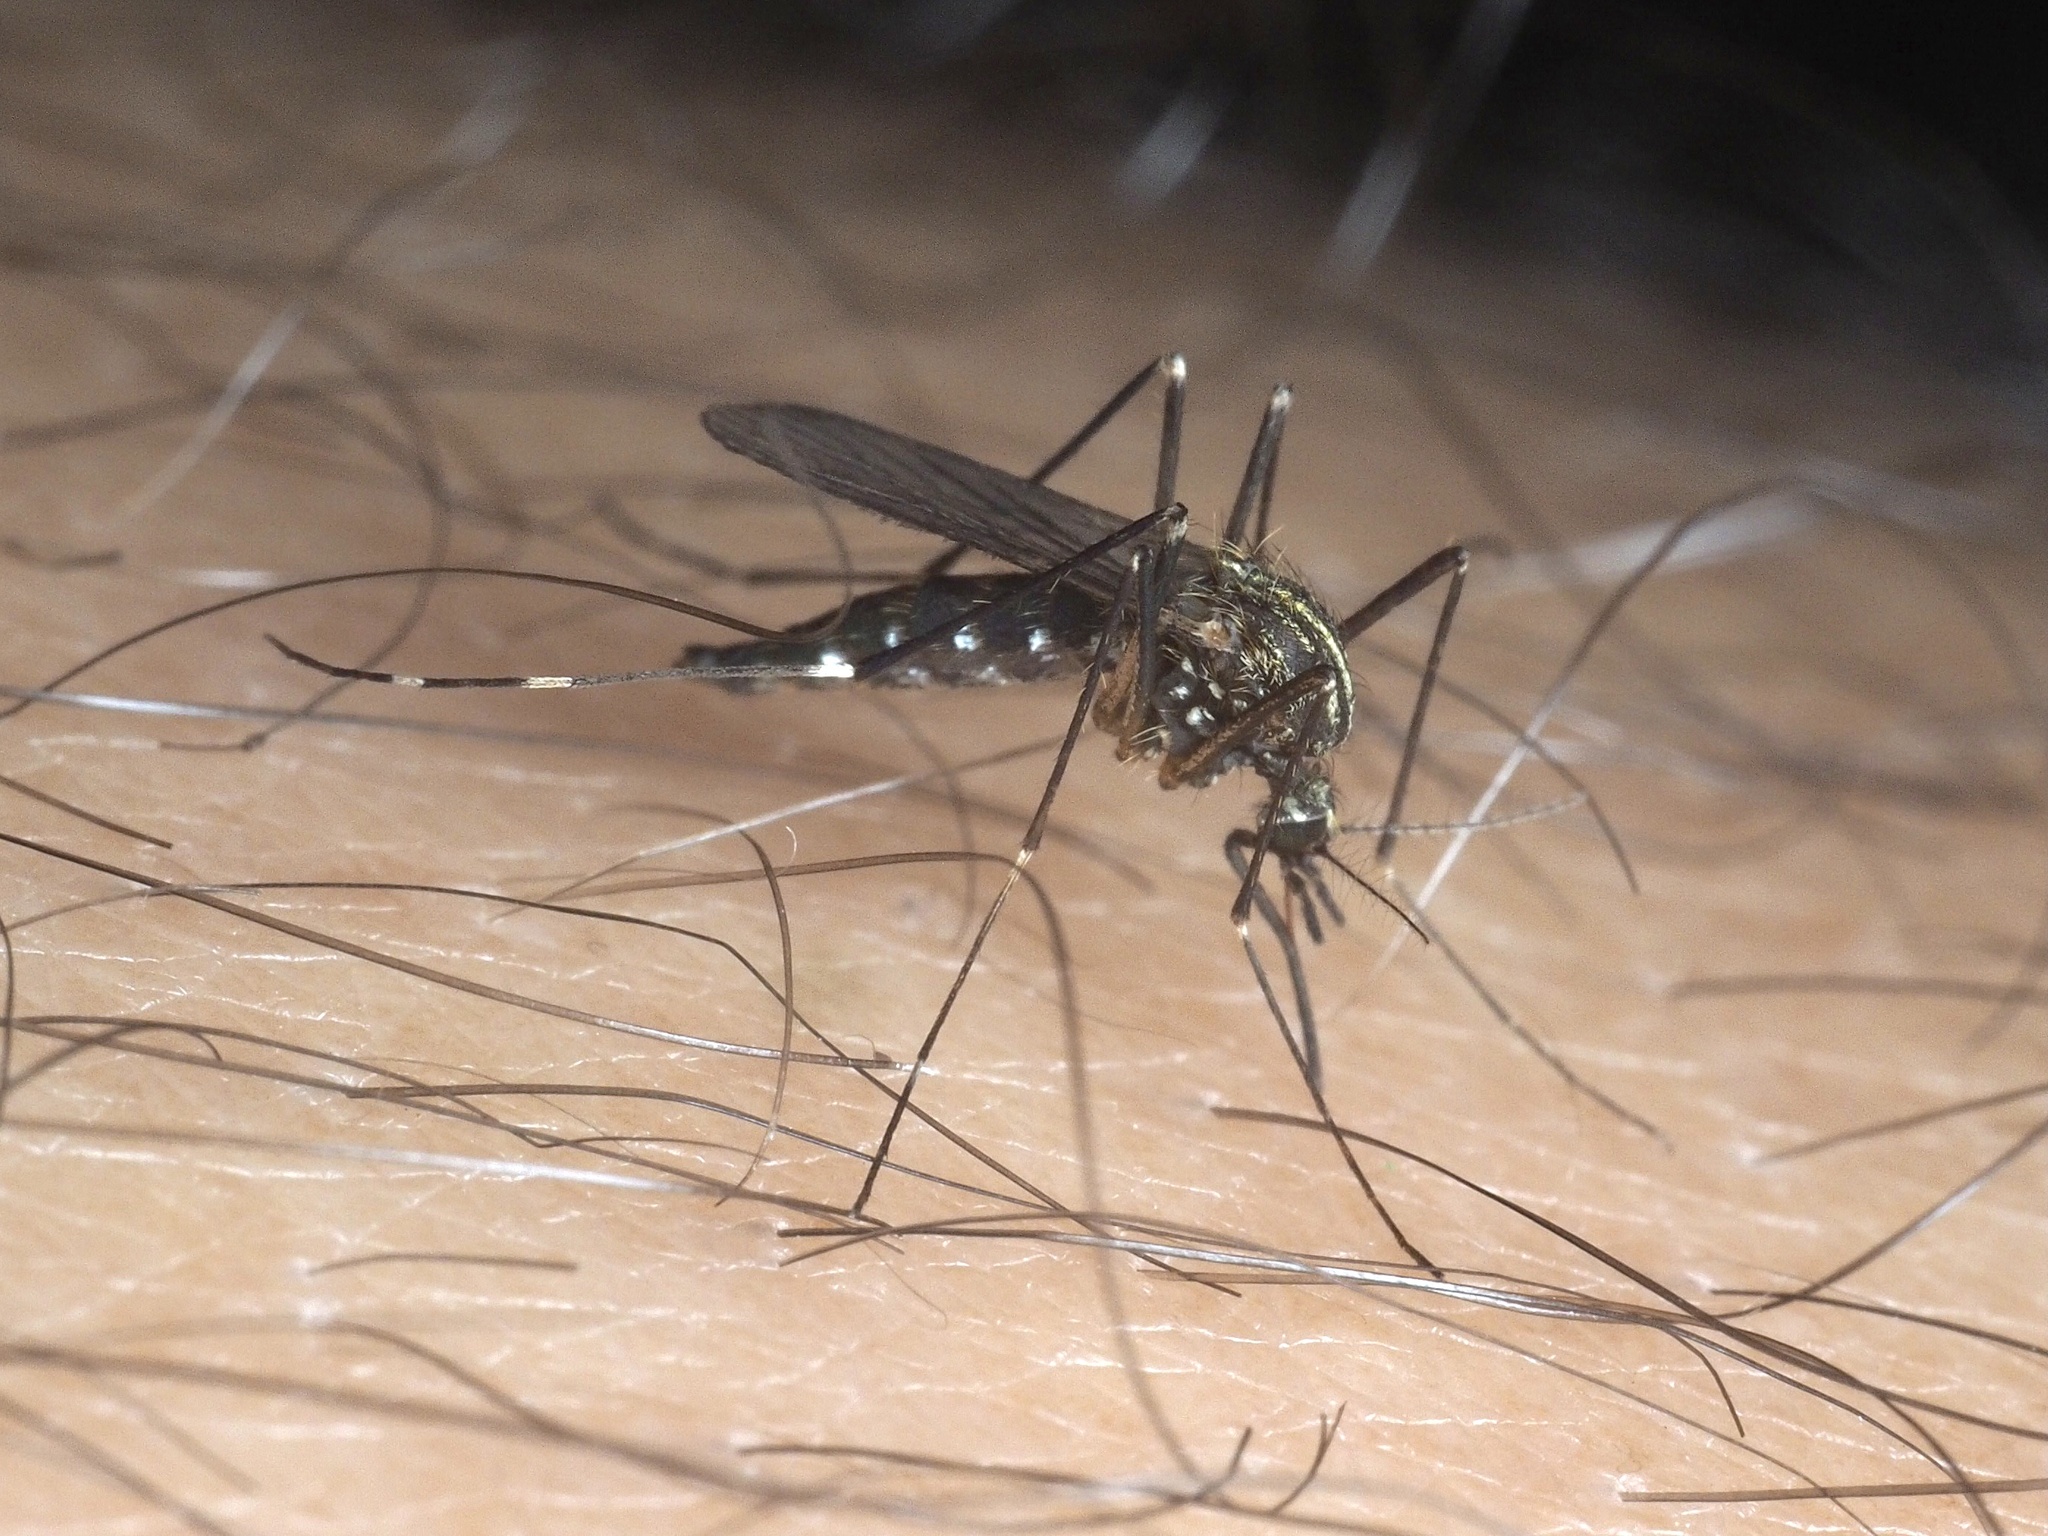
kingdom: Animalia
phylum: Arthropoda
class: Insecta
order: Diptera
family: Culicidae
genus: Aedes
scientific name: Aedes japonicus
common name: Asian bush mosquito
